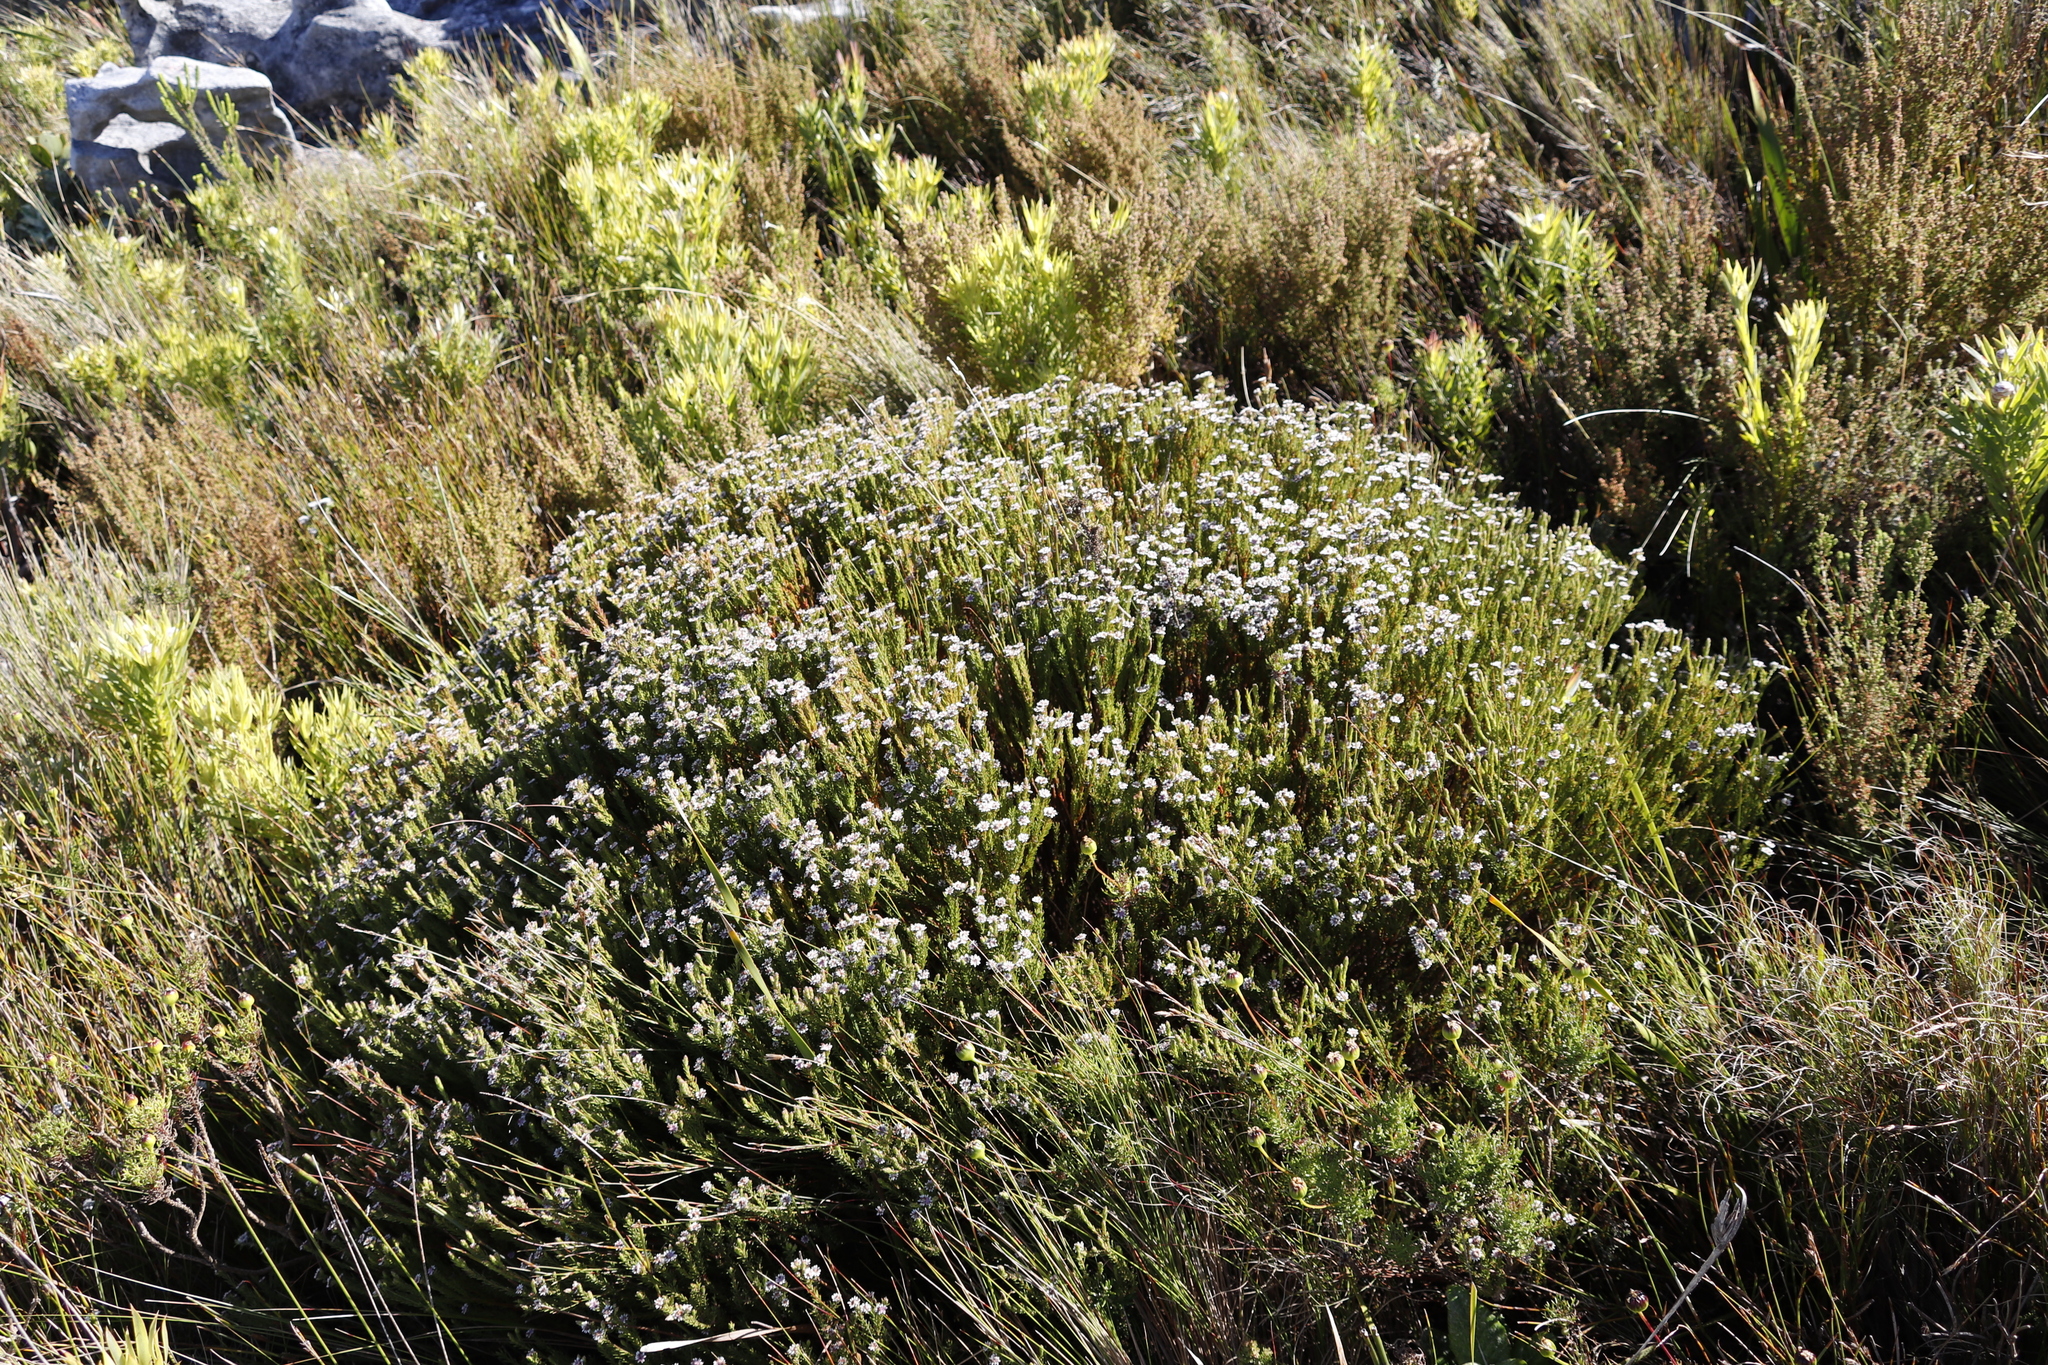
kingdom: Plantae
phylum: Tracheophyta
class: Magnoliopsida
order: Bruniales
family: Bruniaceae
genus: Staavia
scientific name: Staavia radiata
